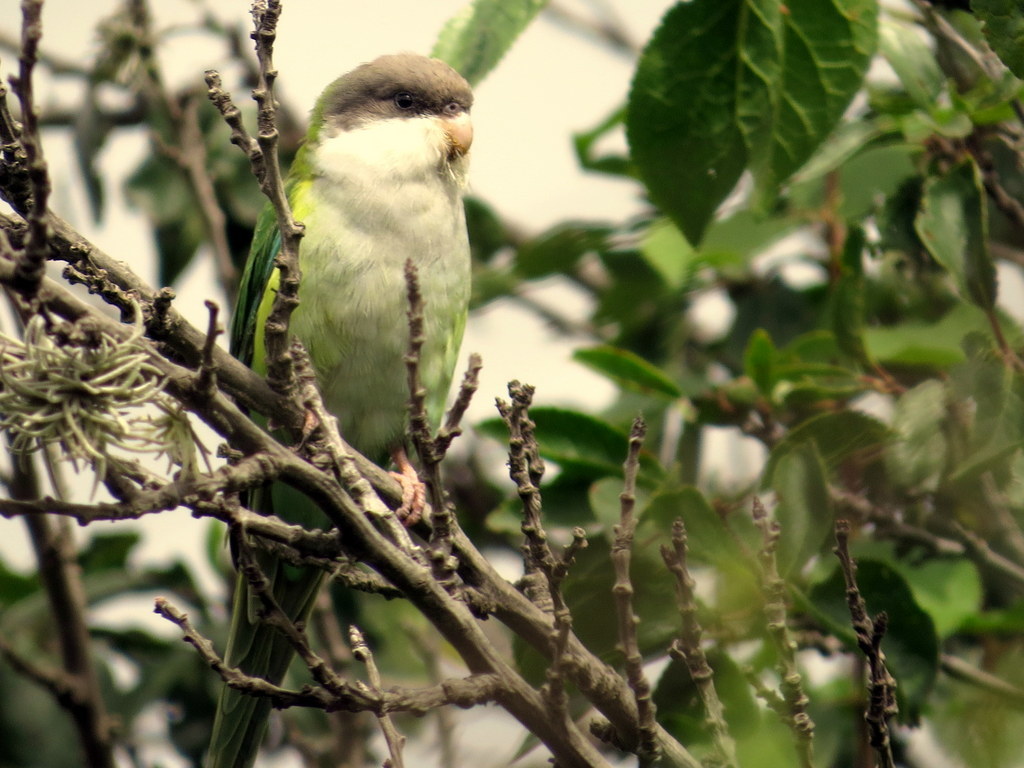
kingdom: Animalia
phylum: Chordata
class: Aves
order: Psittaciformes
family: Psittacidae
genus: Psilopsiagon
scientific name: Psilopsiagon aymara
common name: Grey-hooded parakeet
